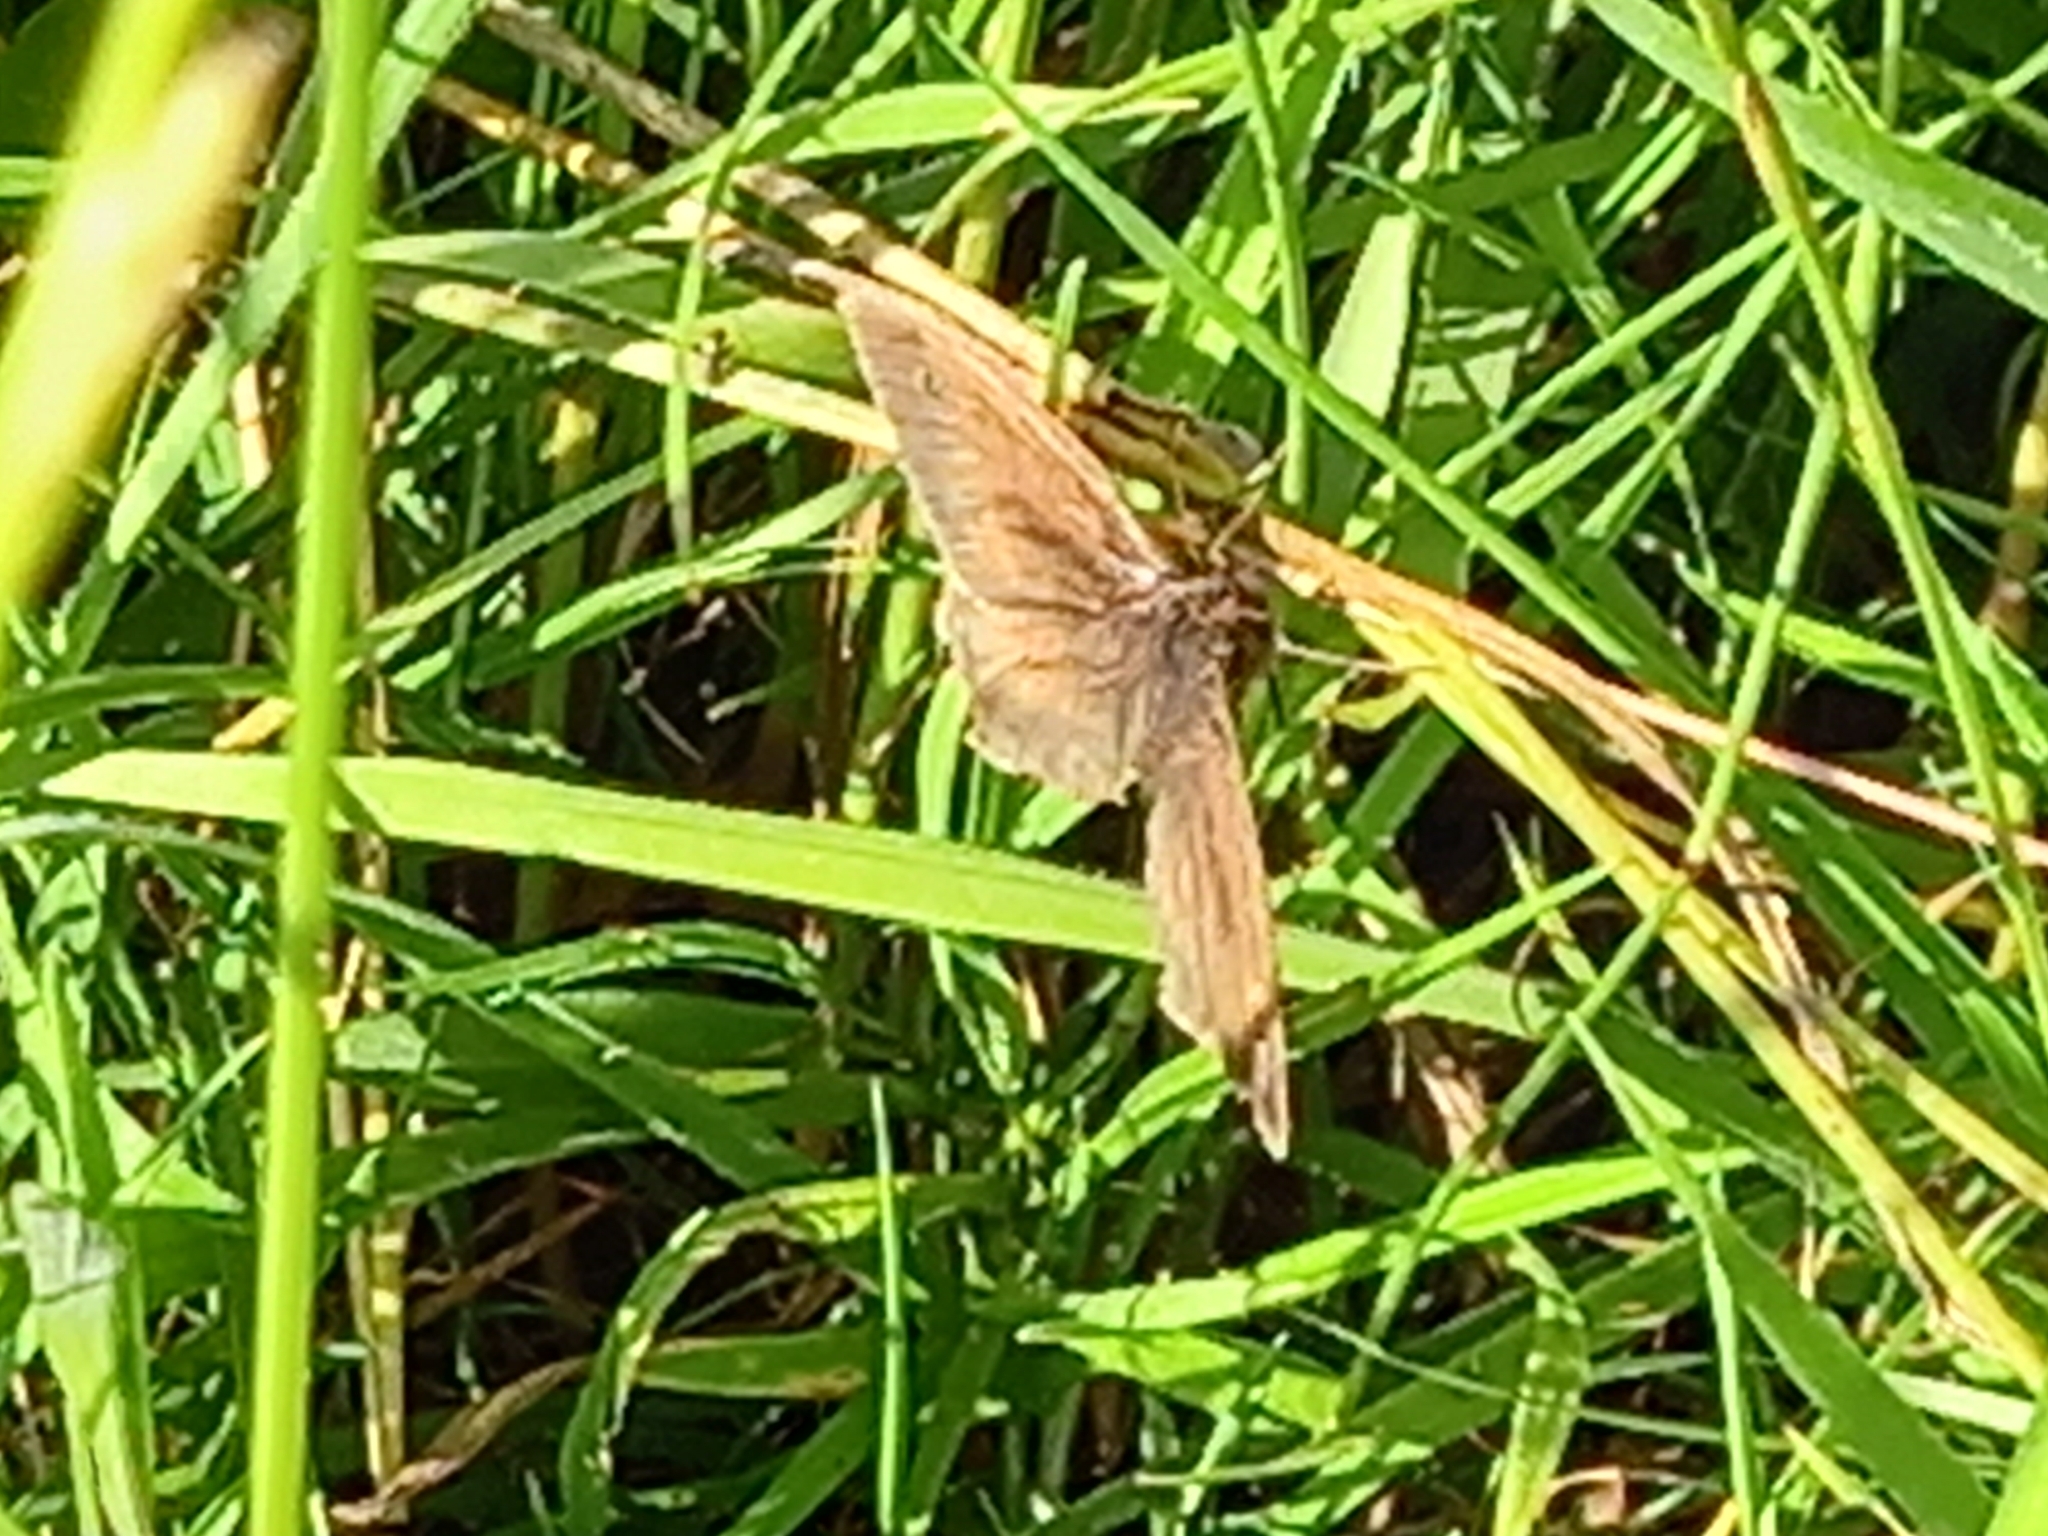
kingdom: Animalia
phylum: Arthropoda
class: Insecta
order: Lepidoptera
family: Nymphalidae
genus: Maniola
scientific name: Maniola jurtina
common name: Meadow brown
